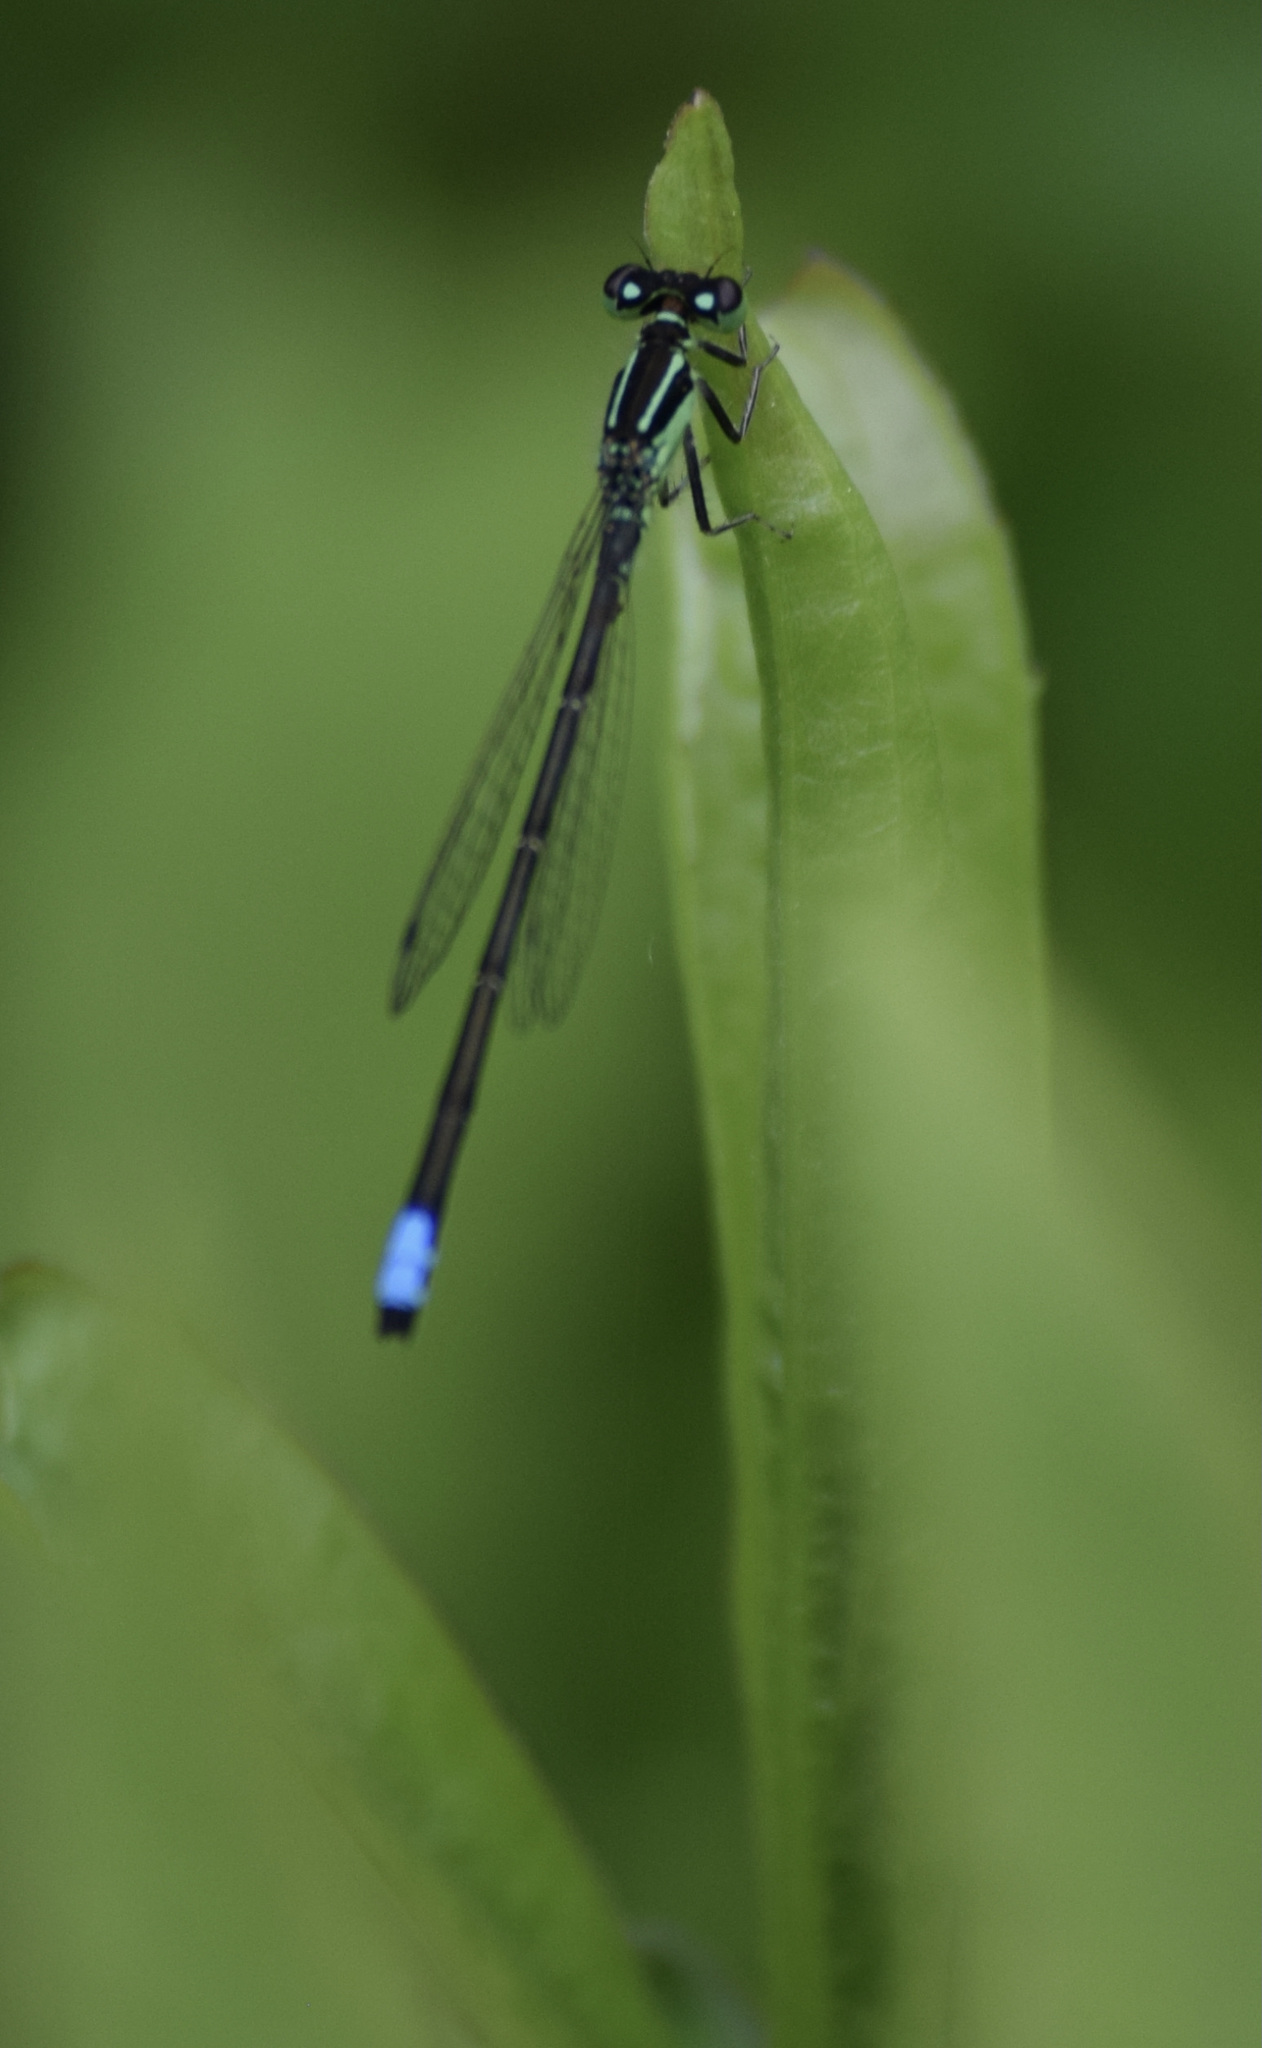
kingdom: Animalia
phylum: Arthropoda
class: Insecta
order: Odonata
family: Coenagrionidae
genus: Ischnura
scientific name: Ischnura verticalis
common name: Eastern forktail
